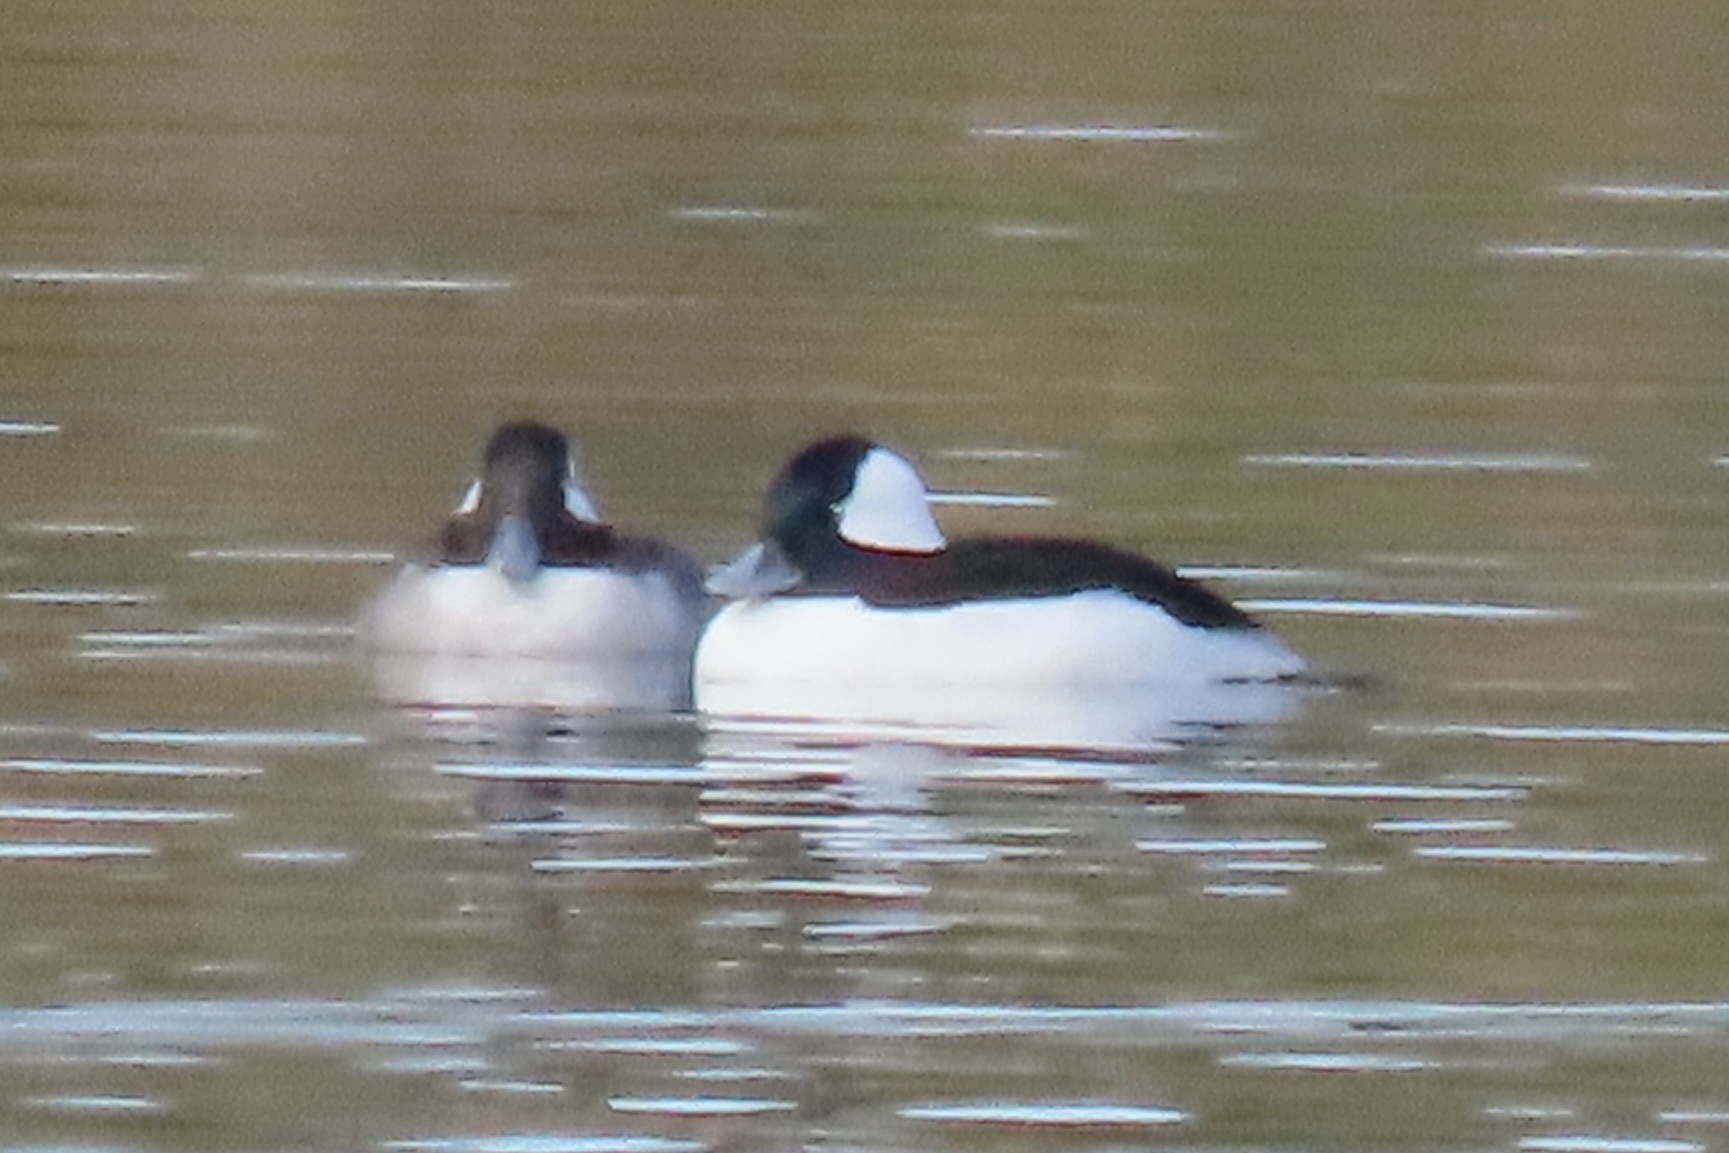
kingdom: Animalia
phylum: Chordata
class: Aves
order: Anseriformes
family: Anatidae
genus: Bucephala
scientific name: Bucephala albeola
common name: Bufflehead
